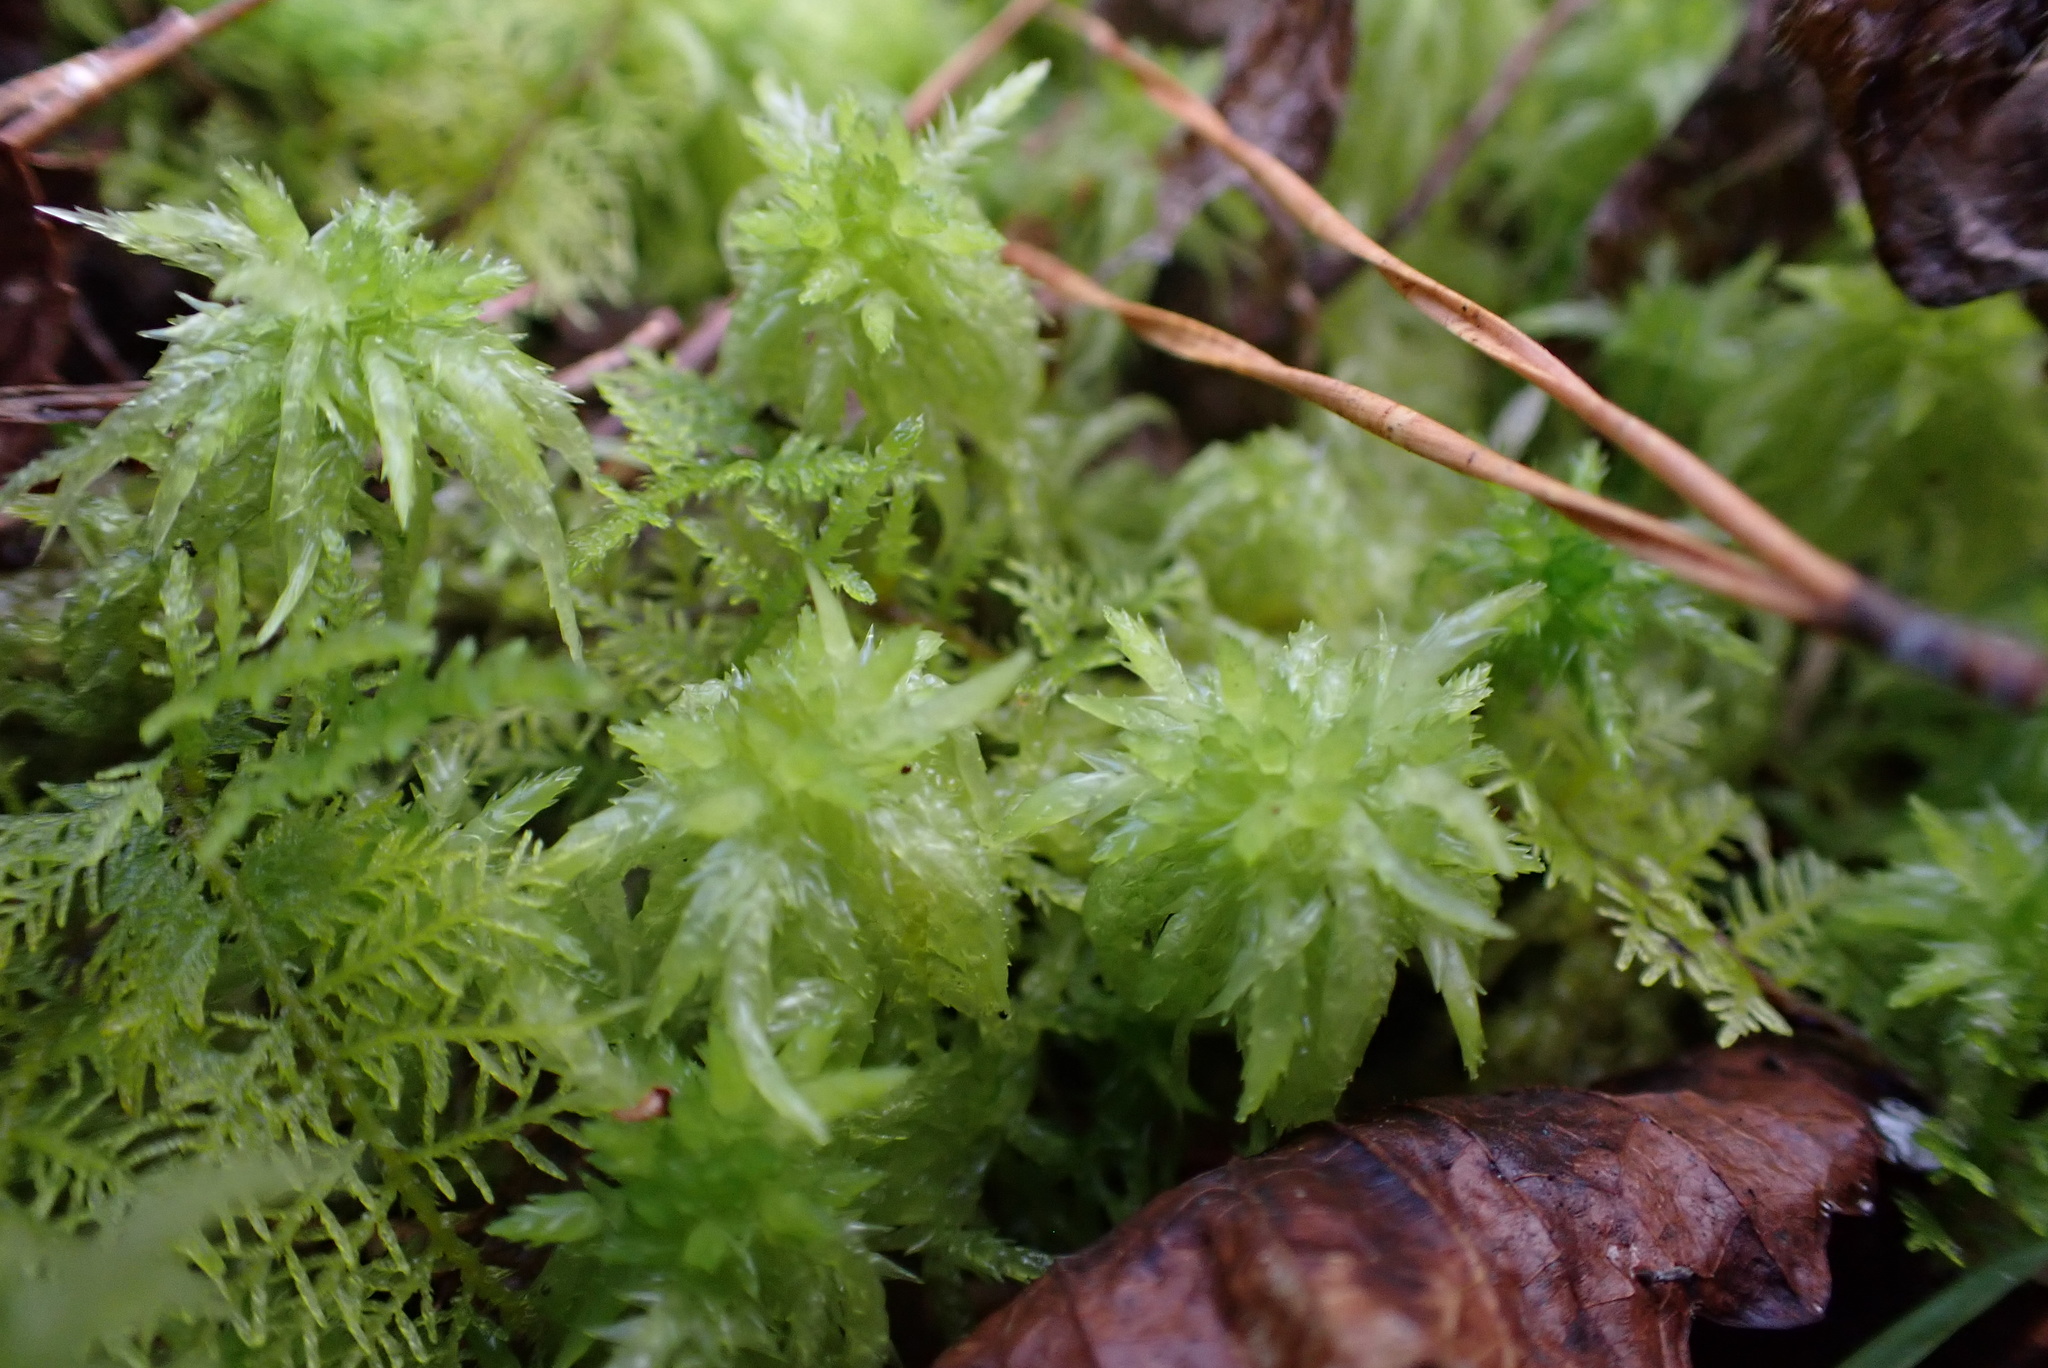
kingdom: Plantae
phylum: Bryophyta
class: Sphagnopsida
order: Sphagnales
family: Sphagnaceae
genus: Sphagnum
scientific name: Sphagnum lescurii
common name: Lesquereux's peat moss
